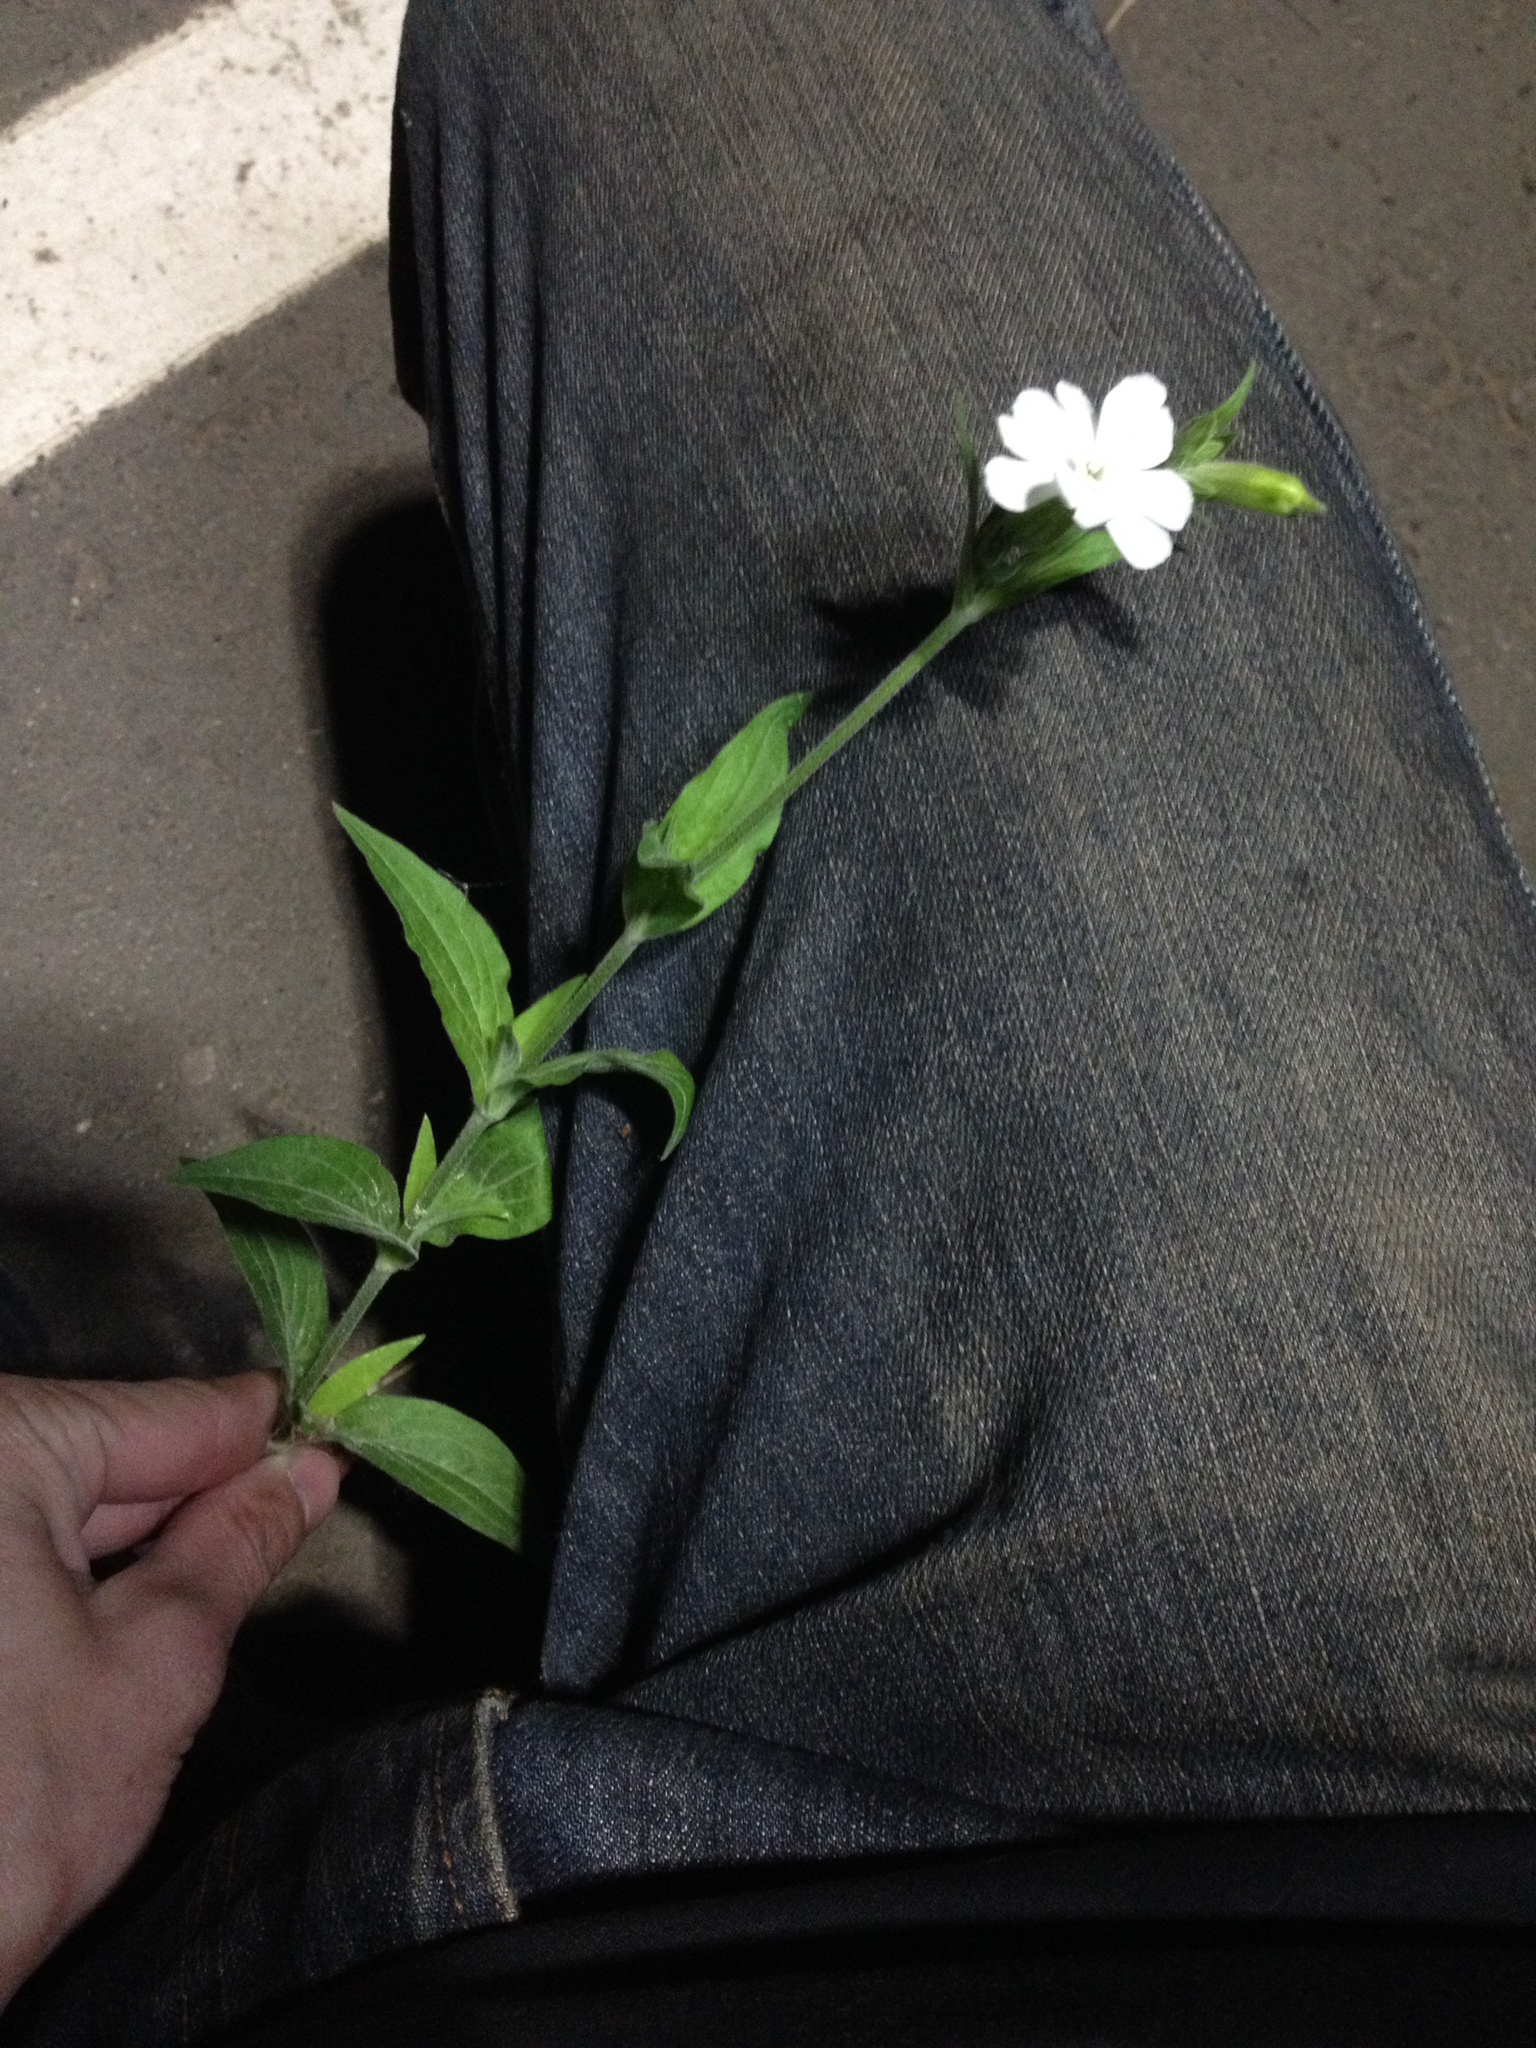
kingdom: Plantae
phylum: Tracheophyta
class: Magnoliopsida
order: Caryophyllales
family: Caryophyllaceae
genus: Silene
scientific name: Silene latifolia
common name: White campion
